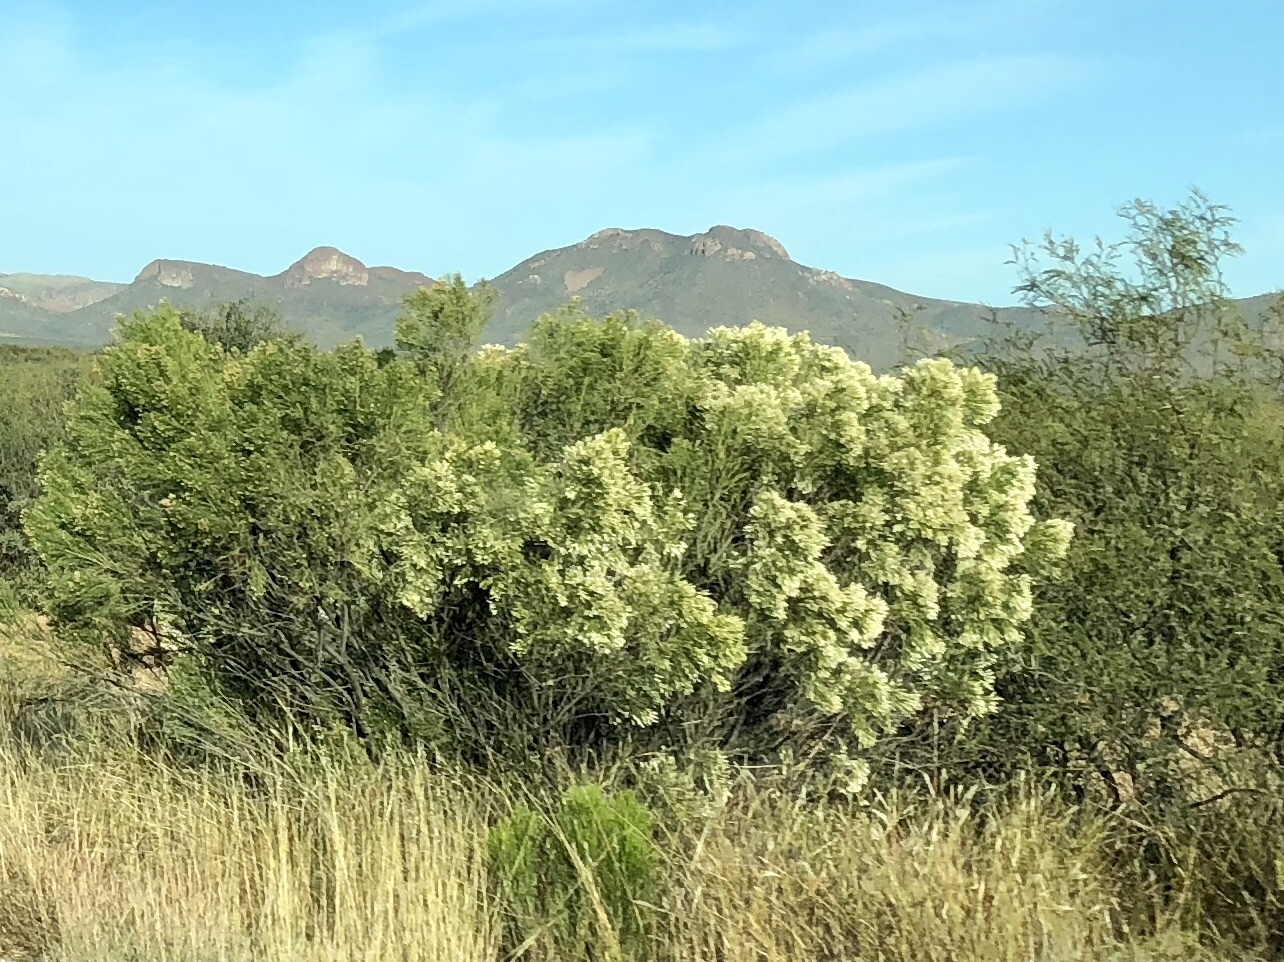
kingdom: Plantae
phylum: Tracheophyta
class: Magnoliopsida
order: Asterales
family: Asteraceae
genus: Baccharis
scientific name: Baccharis sarothroides
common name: Desert-broom
